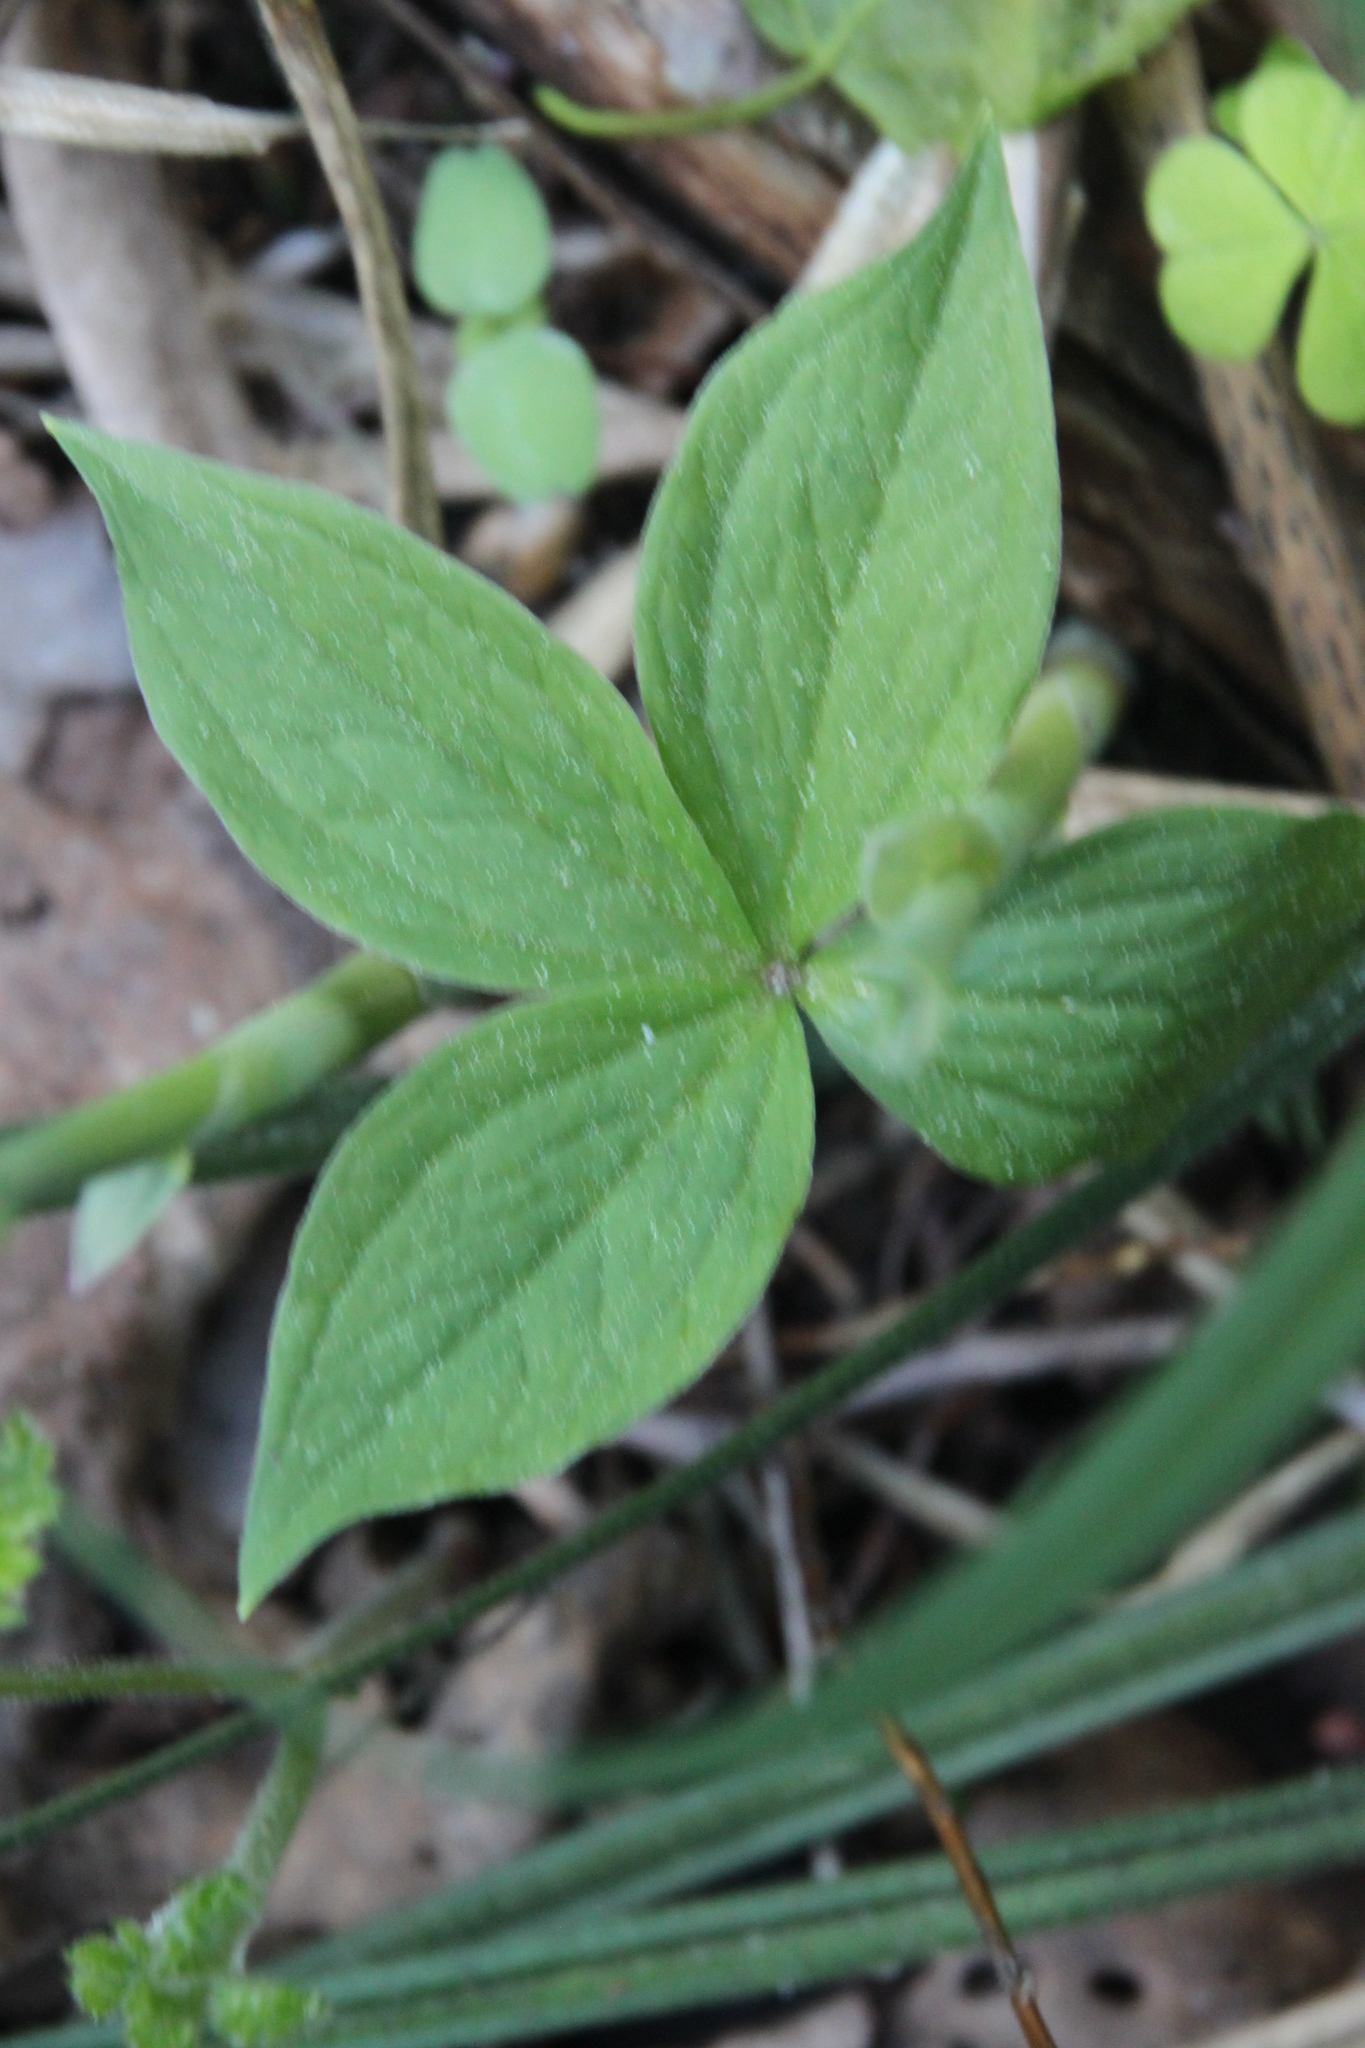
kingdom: Plantae
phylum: Tracheophyta
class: Liliopsida
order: Liliales
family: Melanthiaceae
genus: Paris
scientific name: Paris quadrifolia
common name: Herb-paris
